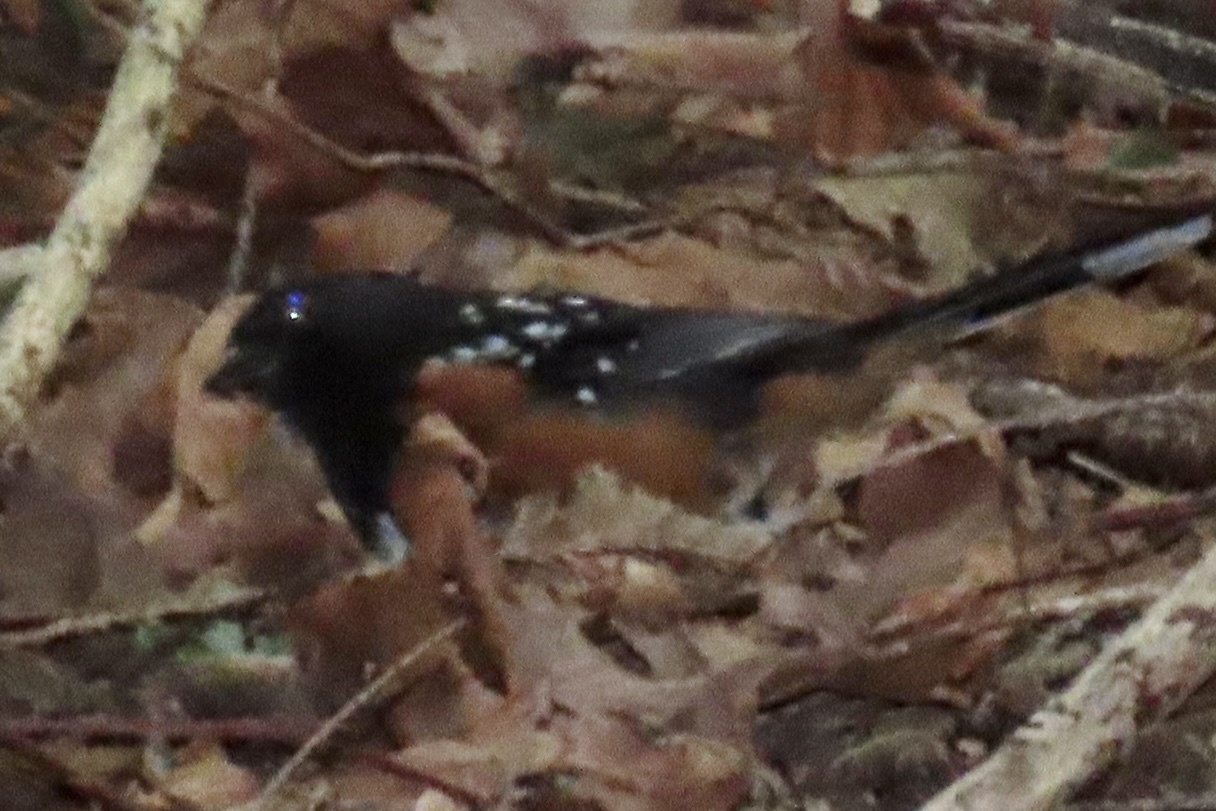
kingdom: Animalia
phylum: Chordata
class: Aves
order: Passeriformes
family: Passerellidae
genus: Pipilo
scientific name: Pipilo maculatus
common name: Spotted towhee
